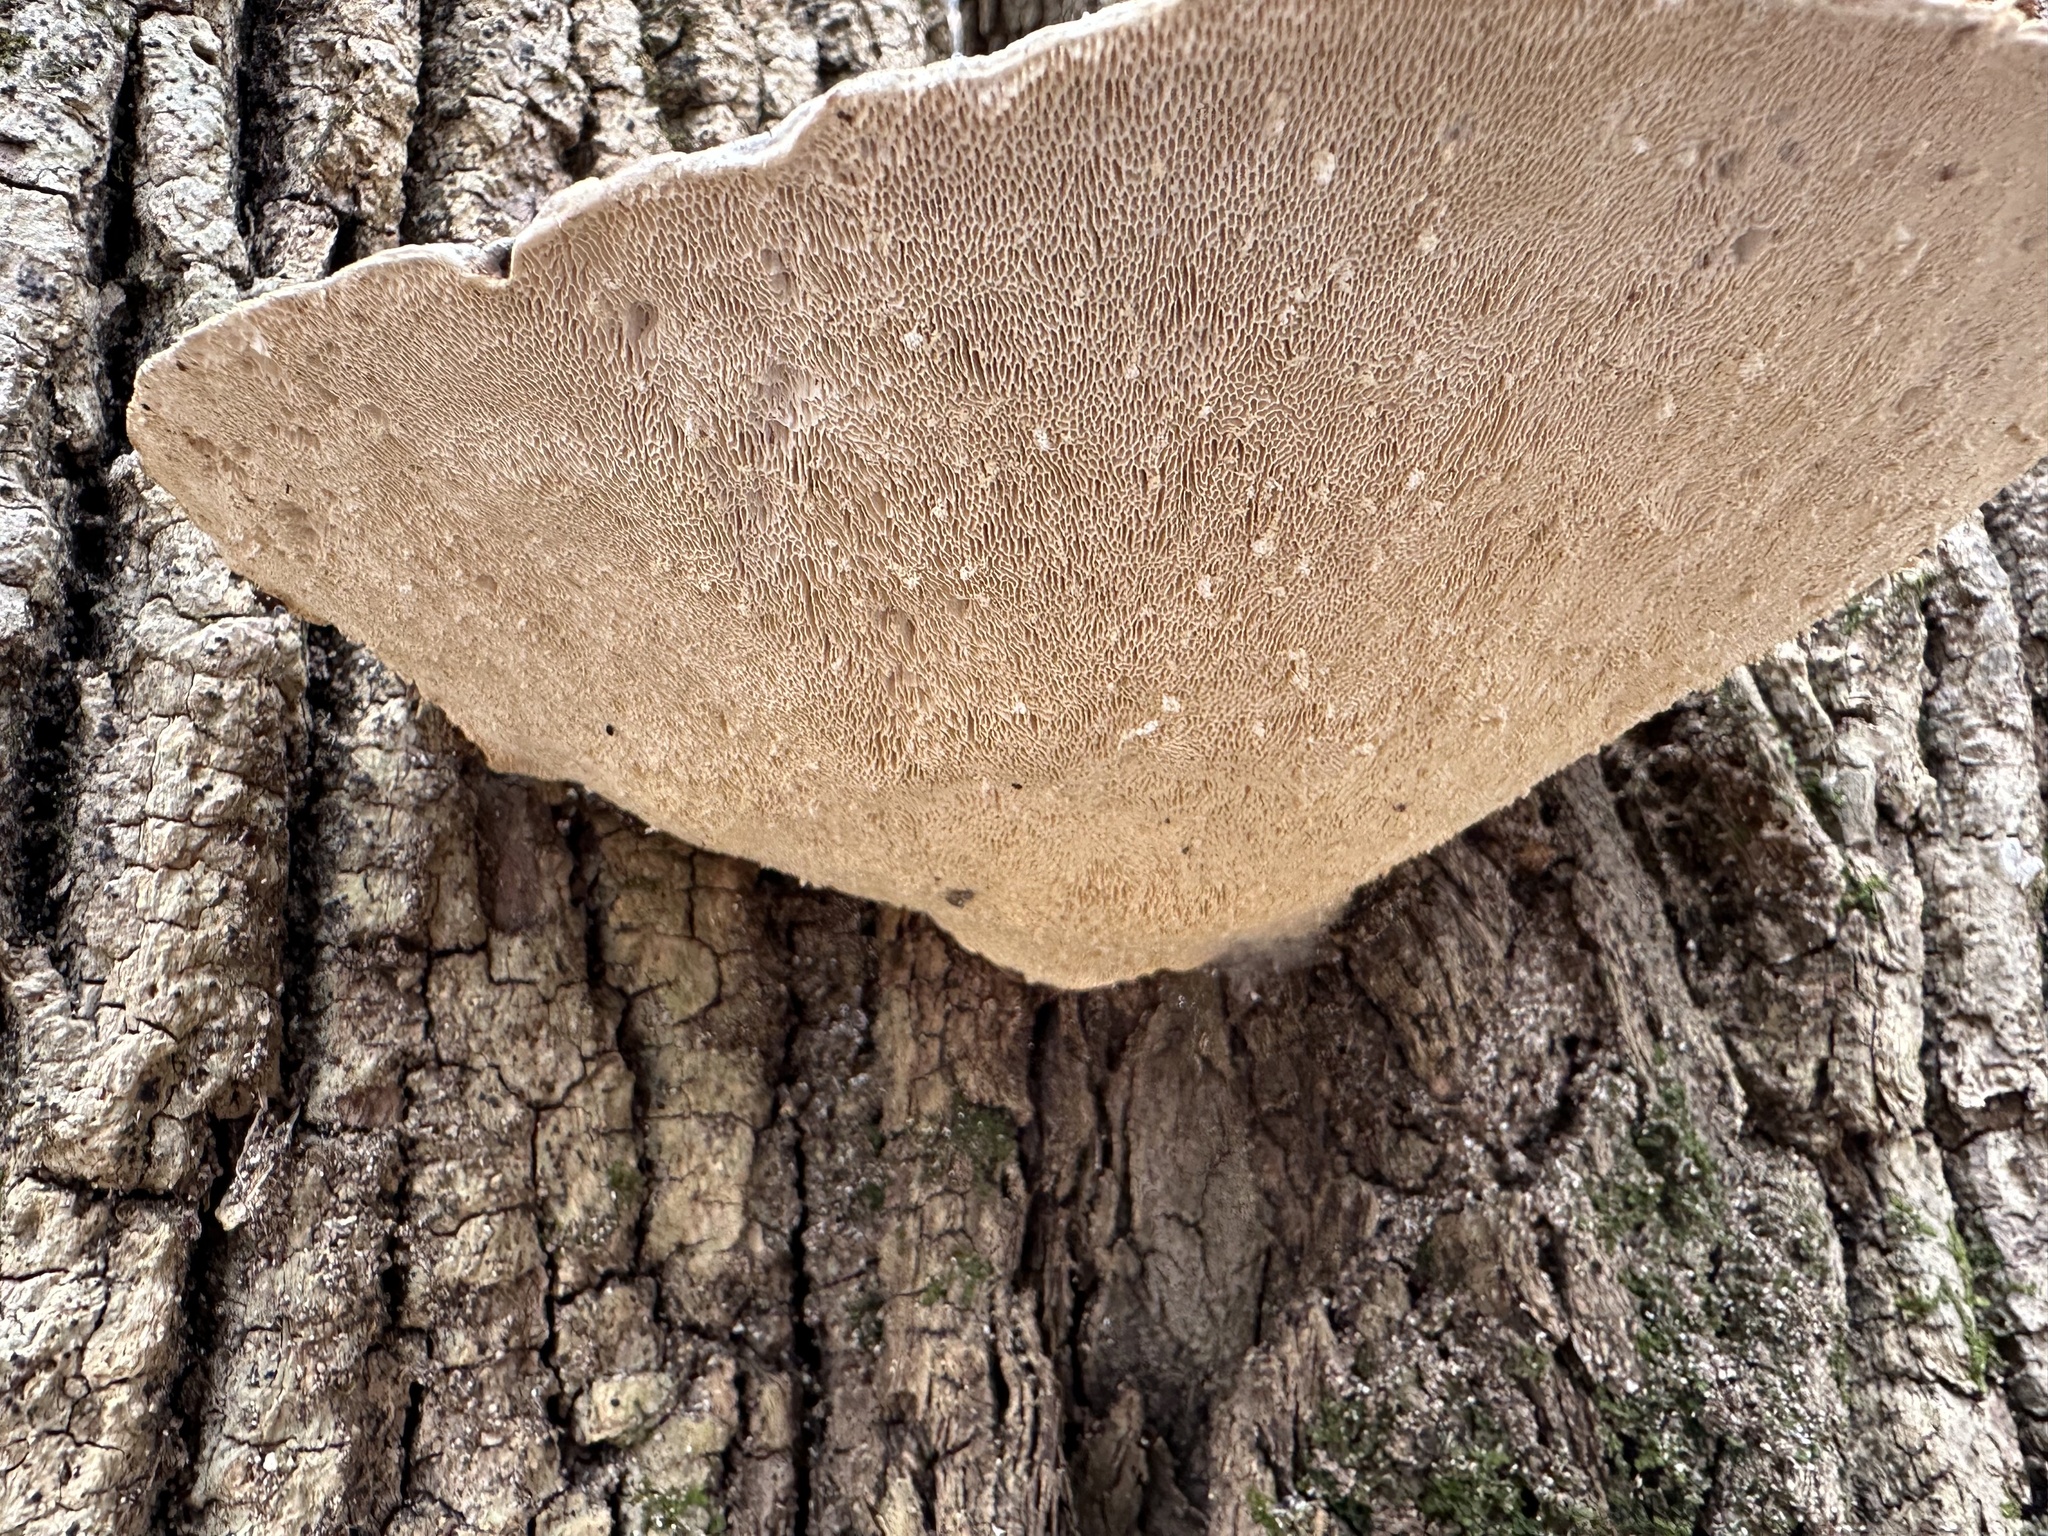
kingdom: Fungi
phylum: Basidiomycota
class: Agaricomycetes
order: Polyporales
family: Polyporaceae
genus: Trametes
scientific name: Trametes gibbosa
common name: Lumpy bracket
